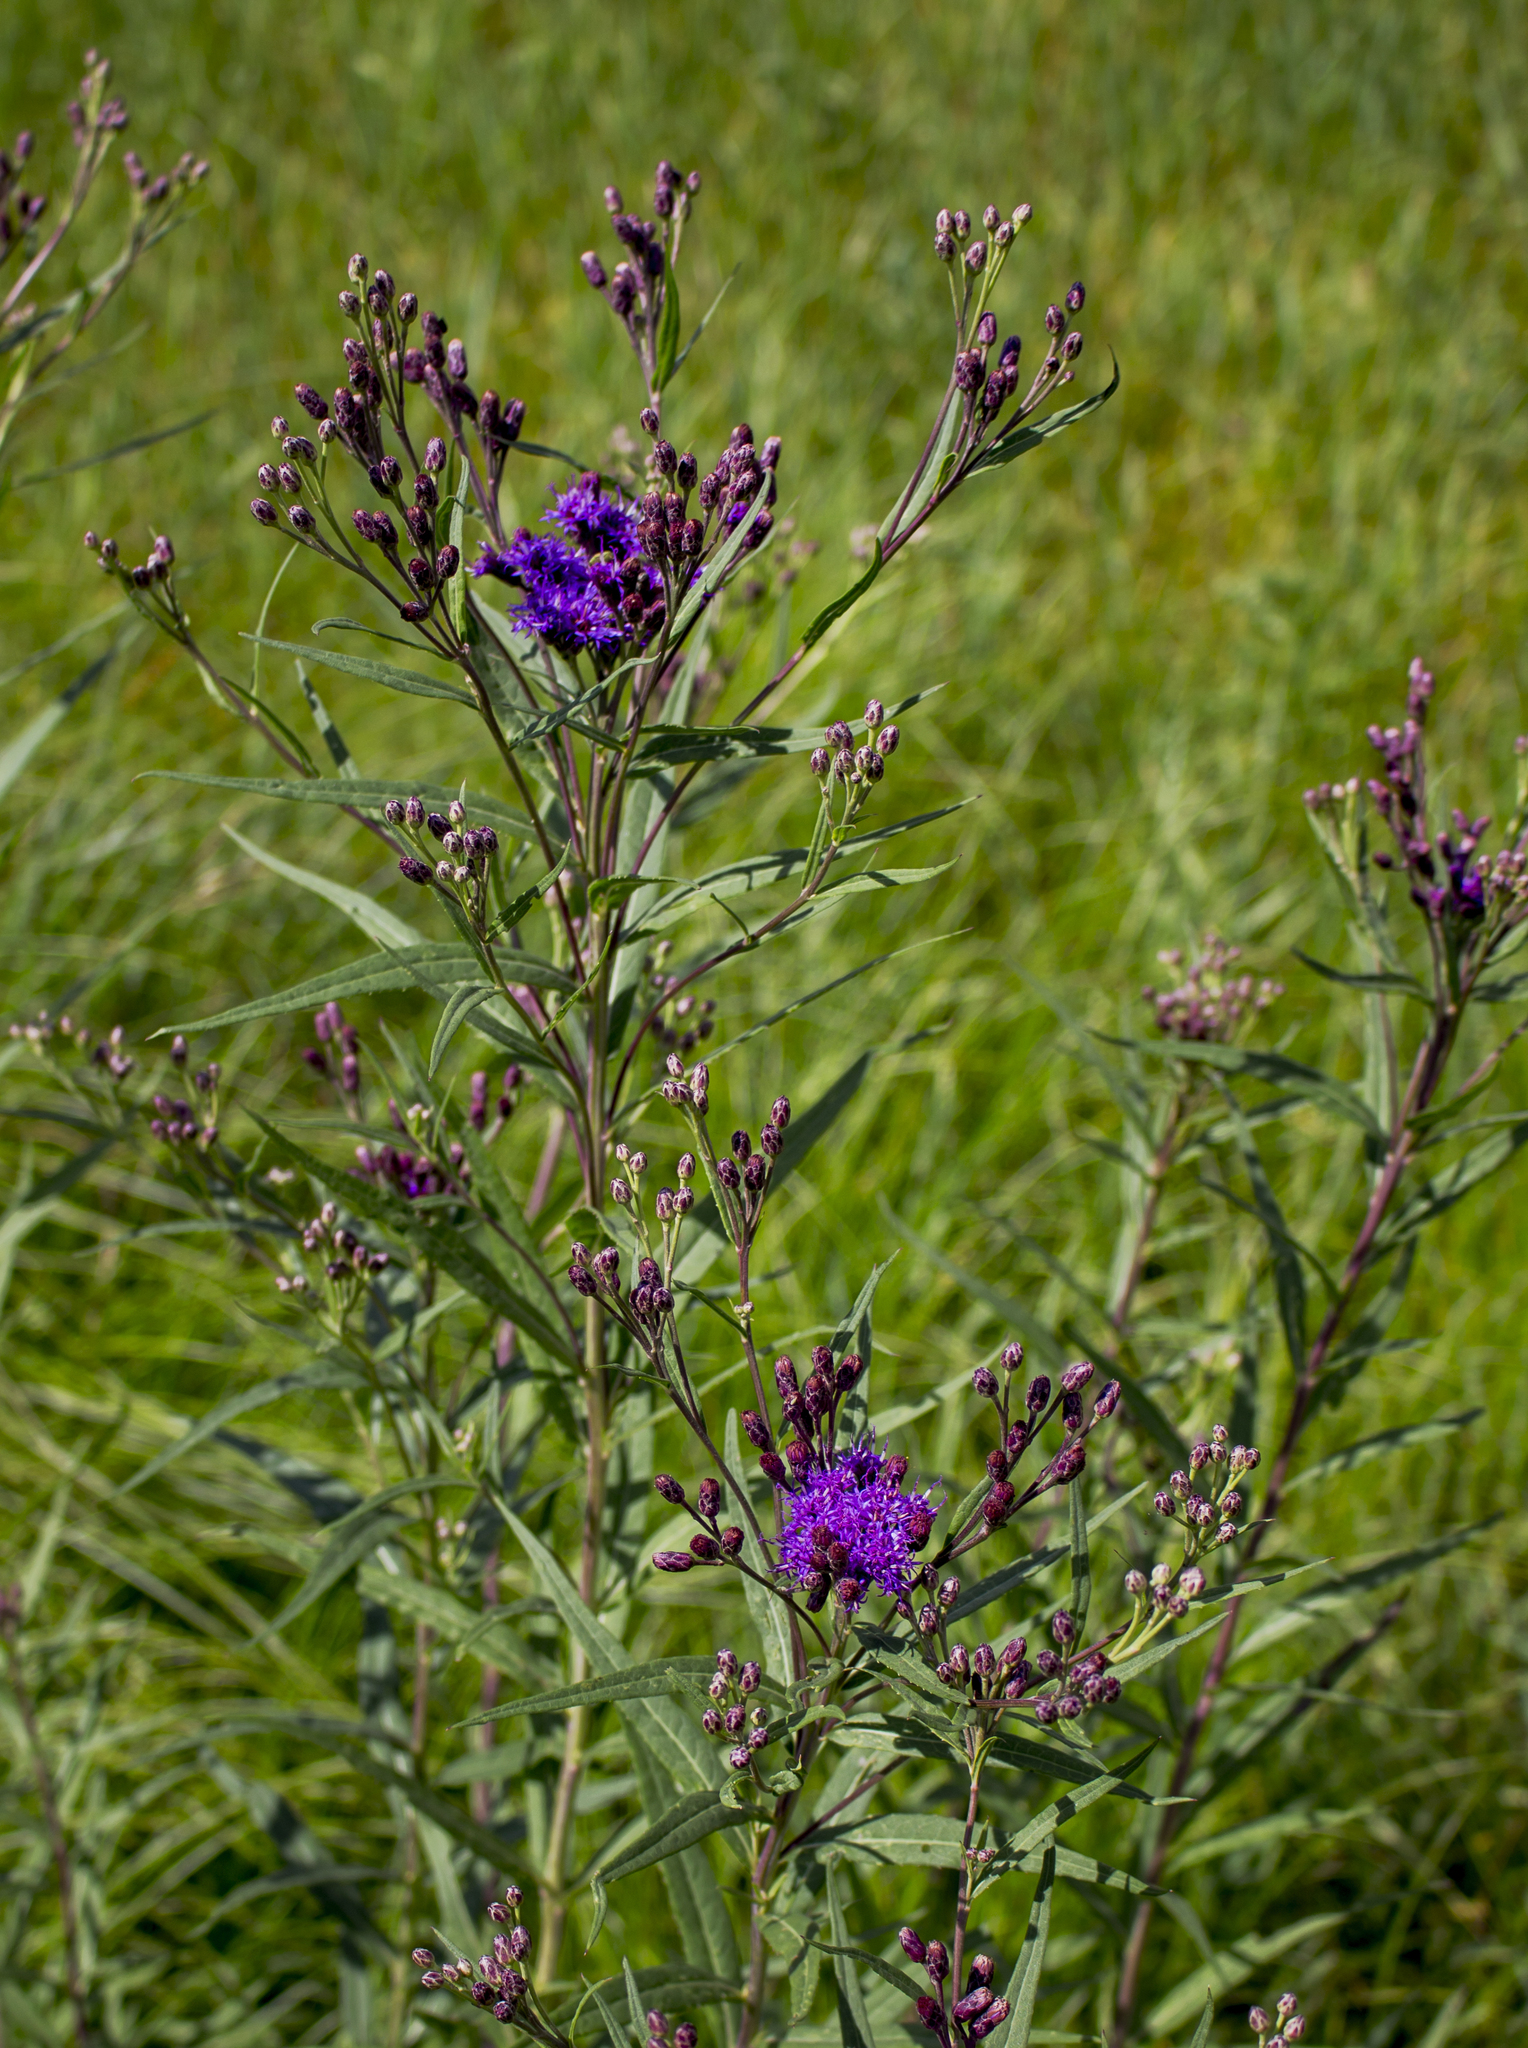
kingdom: Plantae
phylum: Tracheophyta
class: Magnoliopsida
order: Asterales
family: Asteraceae
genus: Vernonia
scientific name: Vernonia fasciculata
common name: Fascicled ironweed
